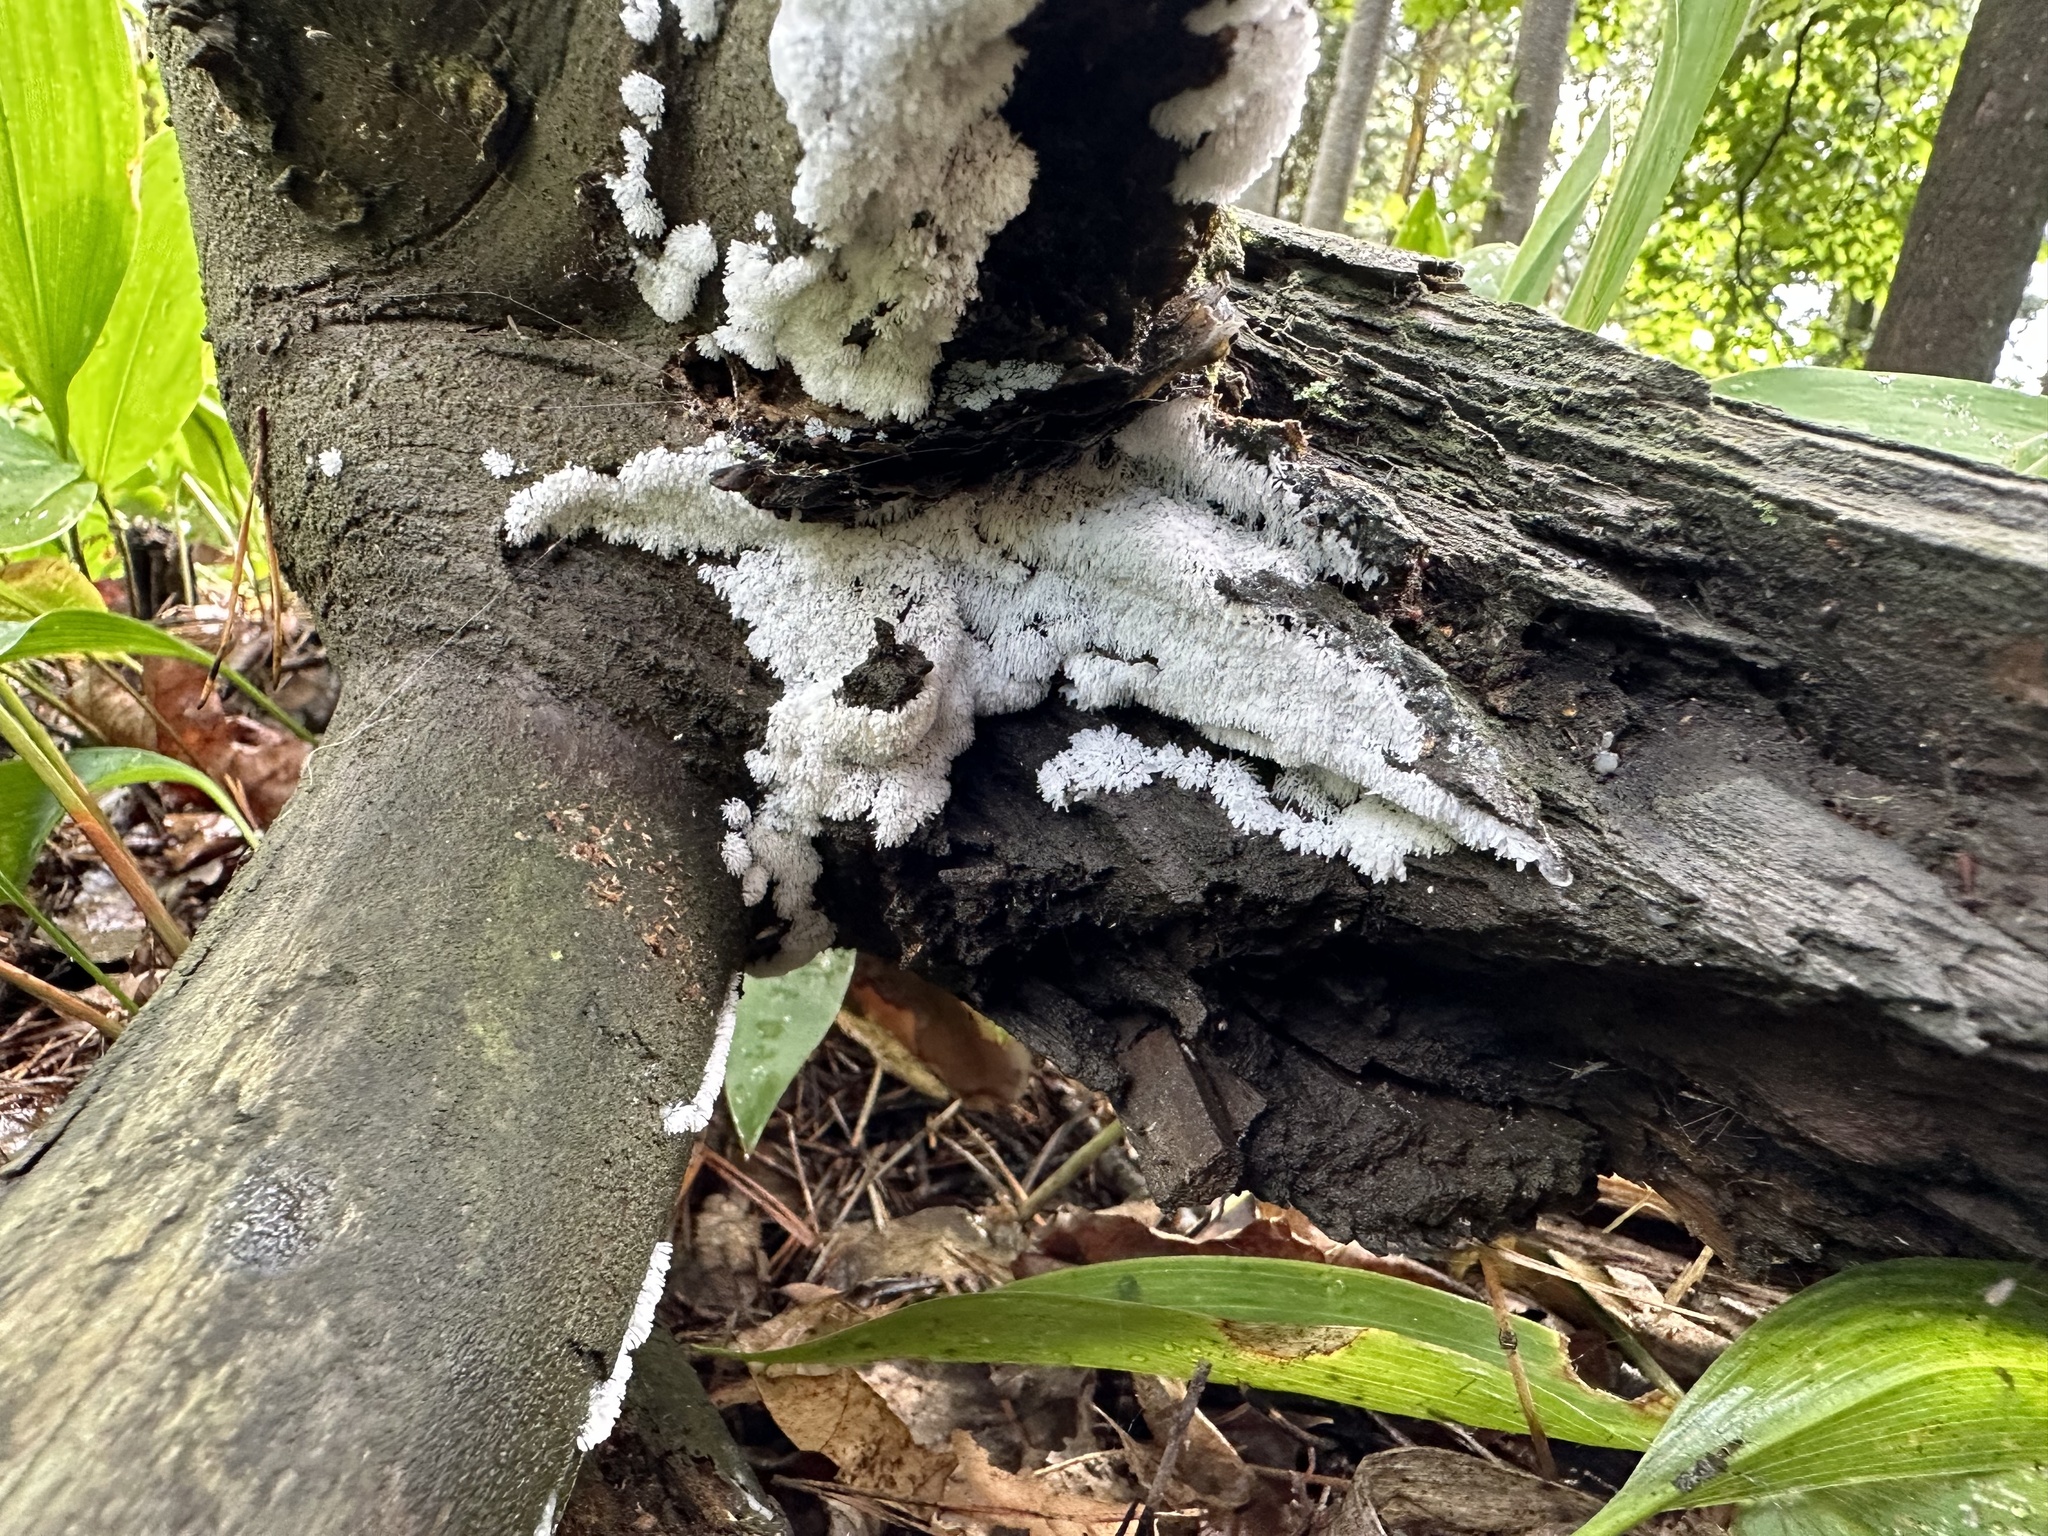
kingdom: Protozoa
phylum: Mycetozoa
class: Protosteliomycetes
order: Ceratiomyxales
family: Ceratiomyxaceae
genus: Ceratiomyxa
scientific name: Ceratiomyxa fruticulosa
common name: Honeycomb coral slime mold
